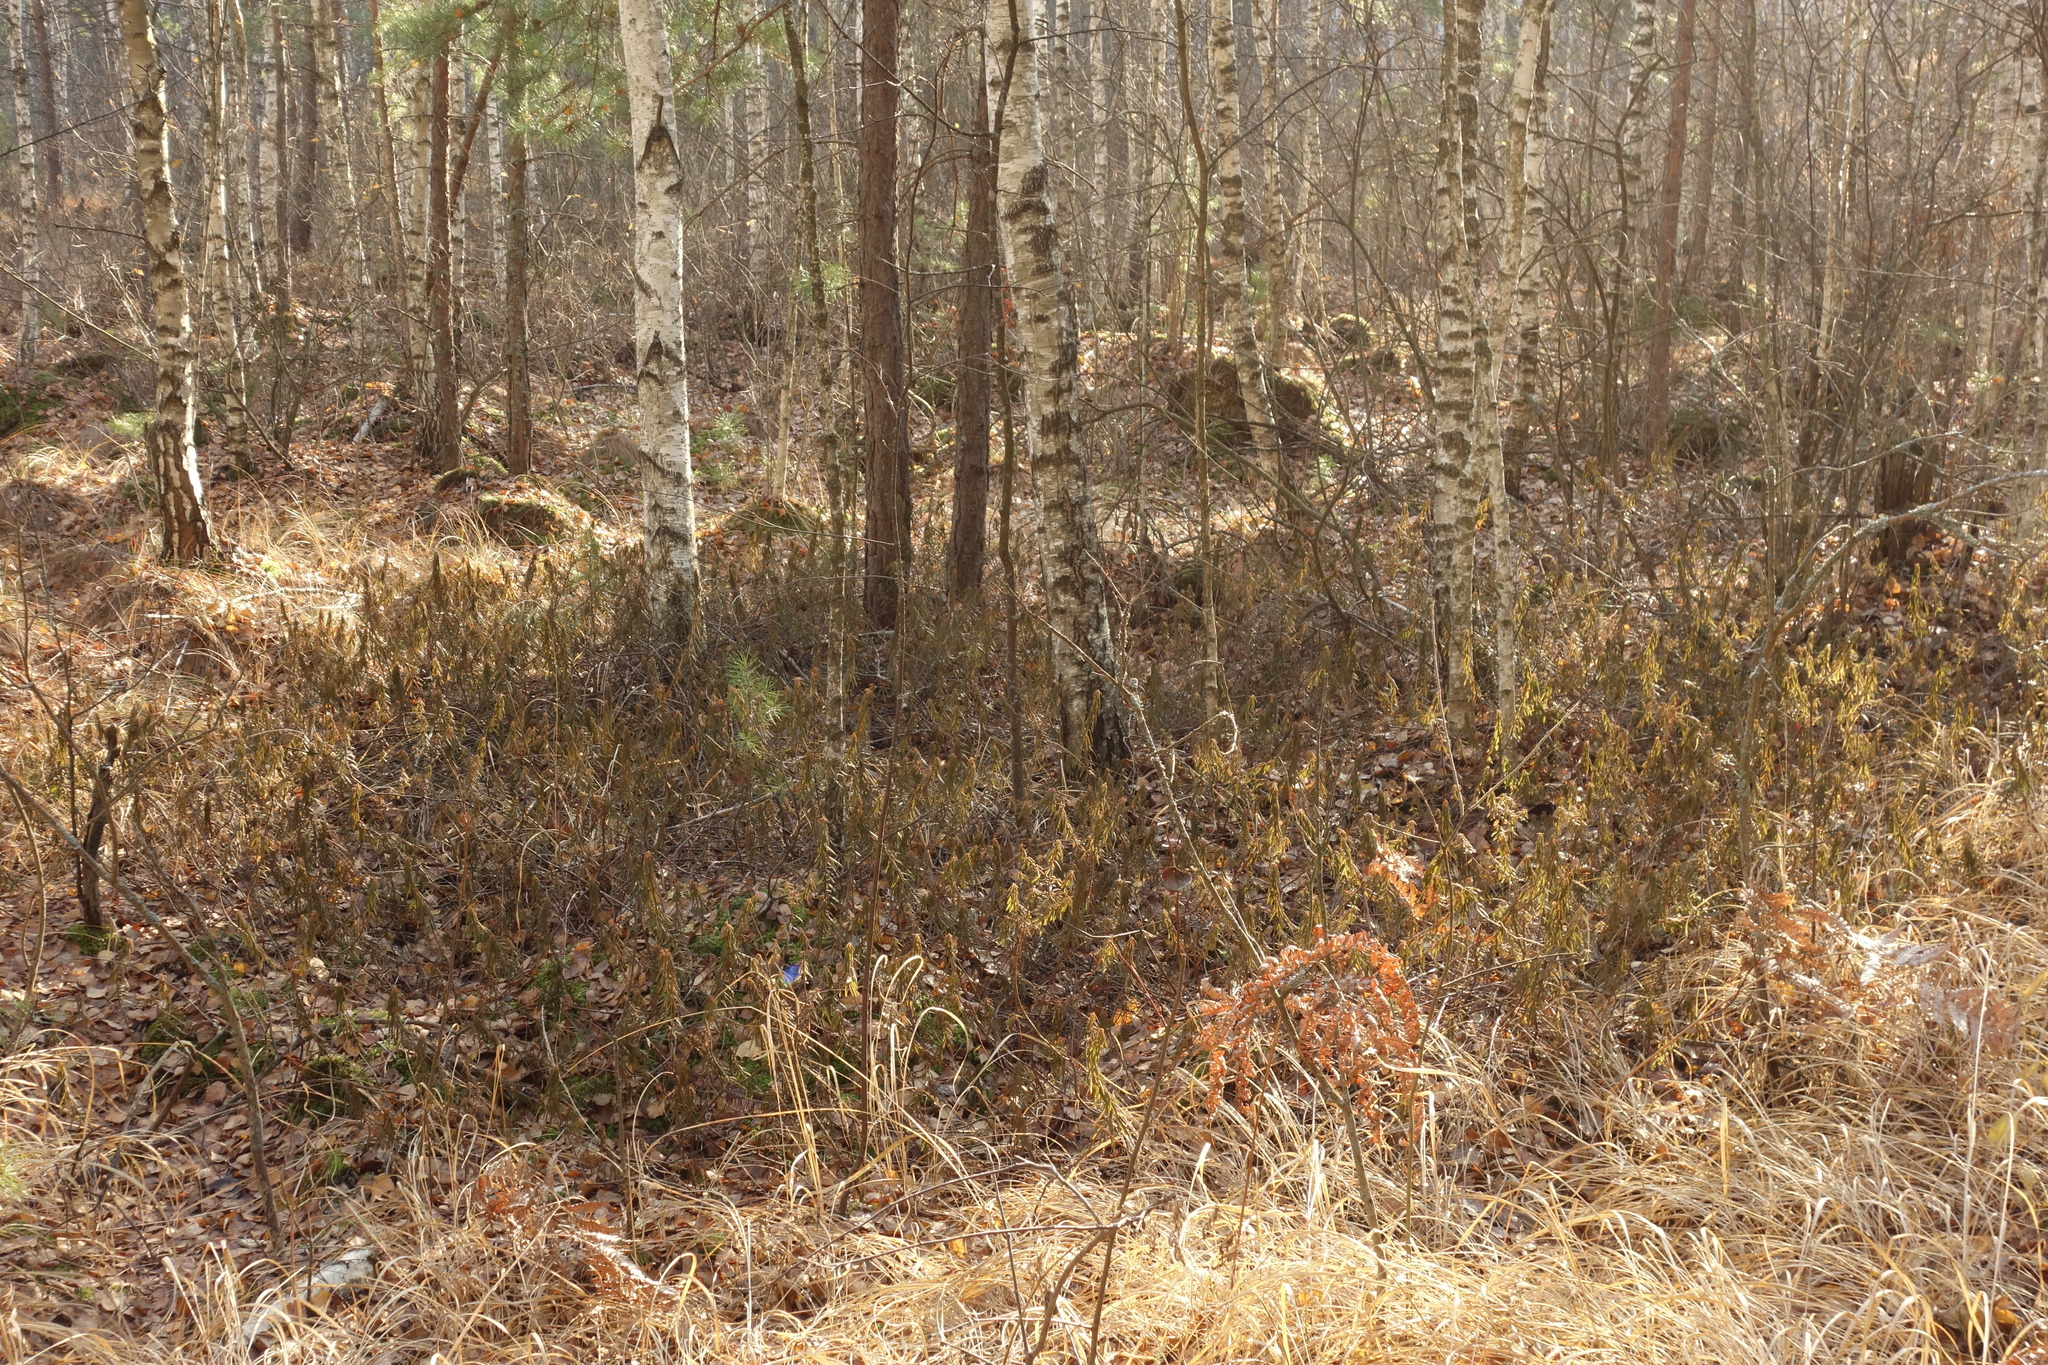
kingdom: Plantae
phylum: Tracheophyta
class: Magnoliopsida
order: Ericales
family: Ericaceae
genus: Rhododendron
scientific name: Rhododendron tomentosum
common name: Marsh labrador tea
